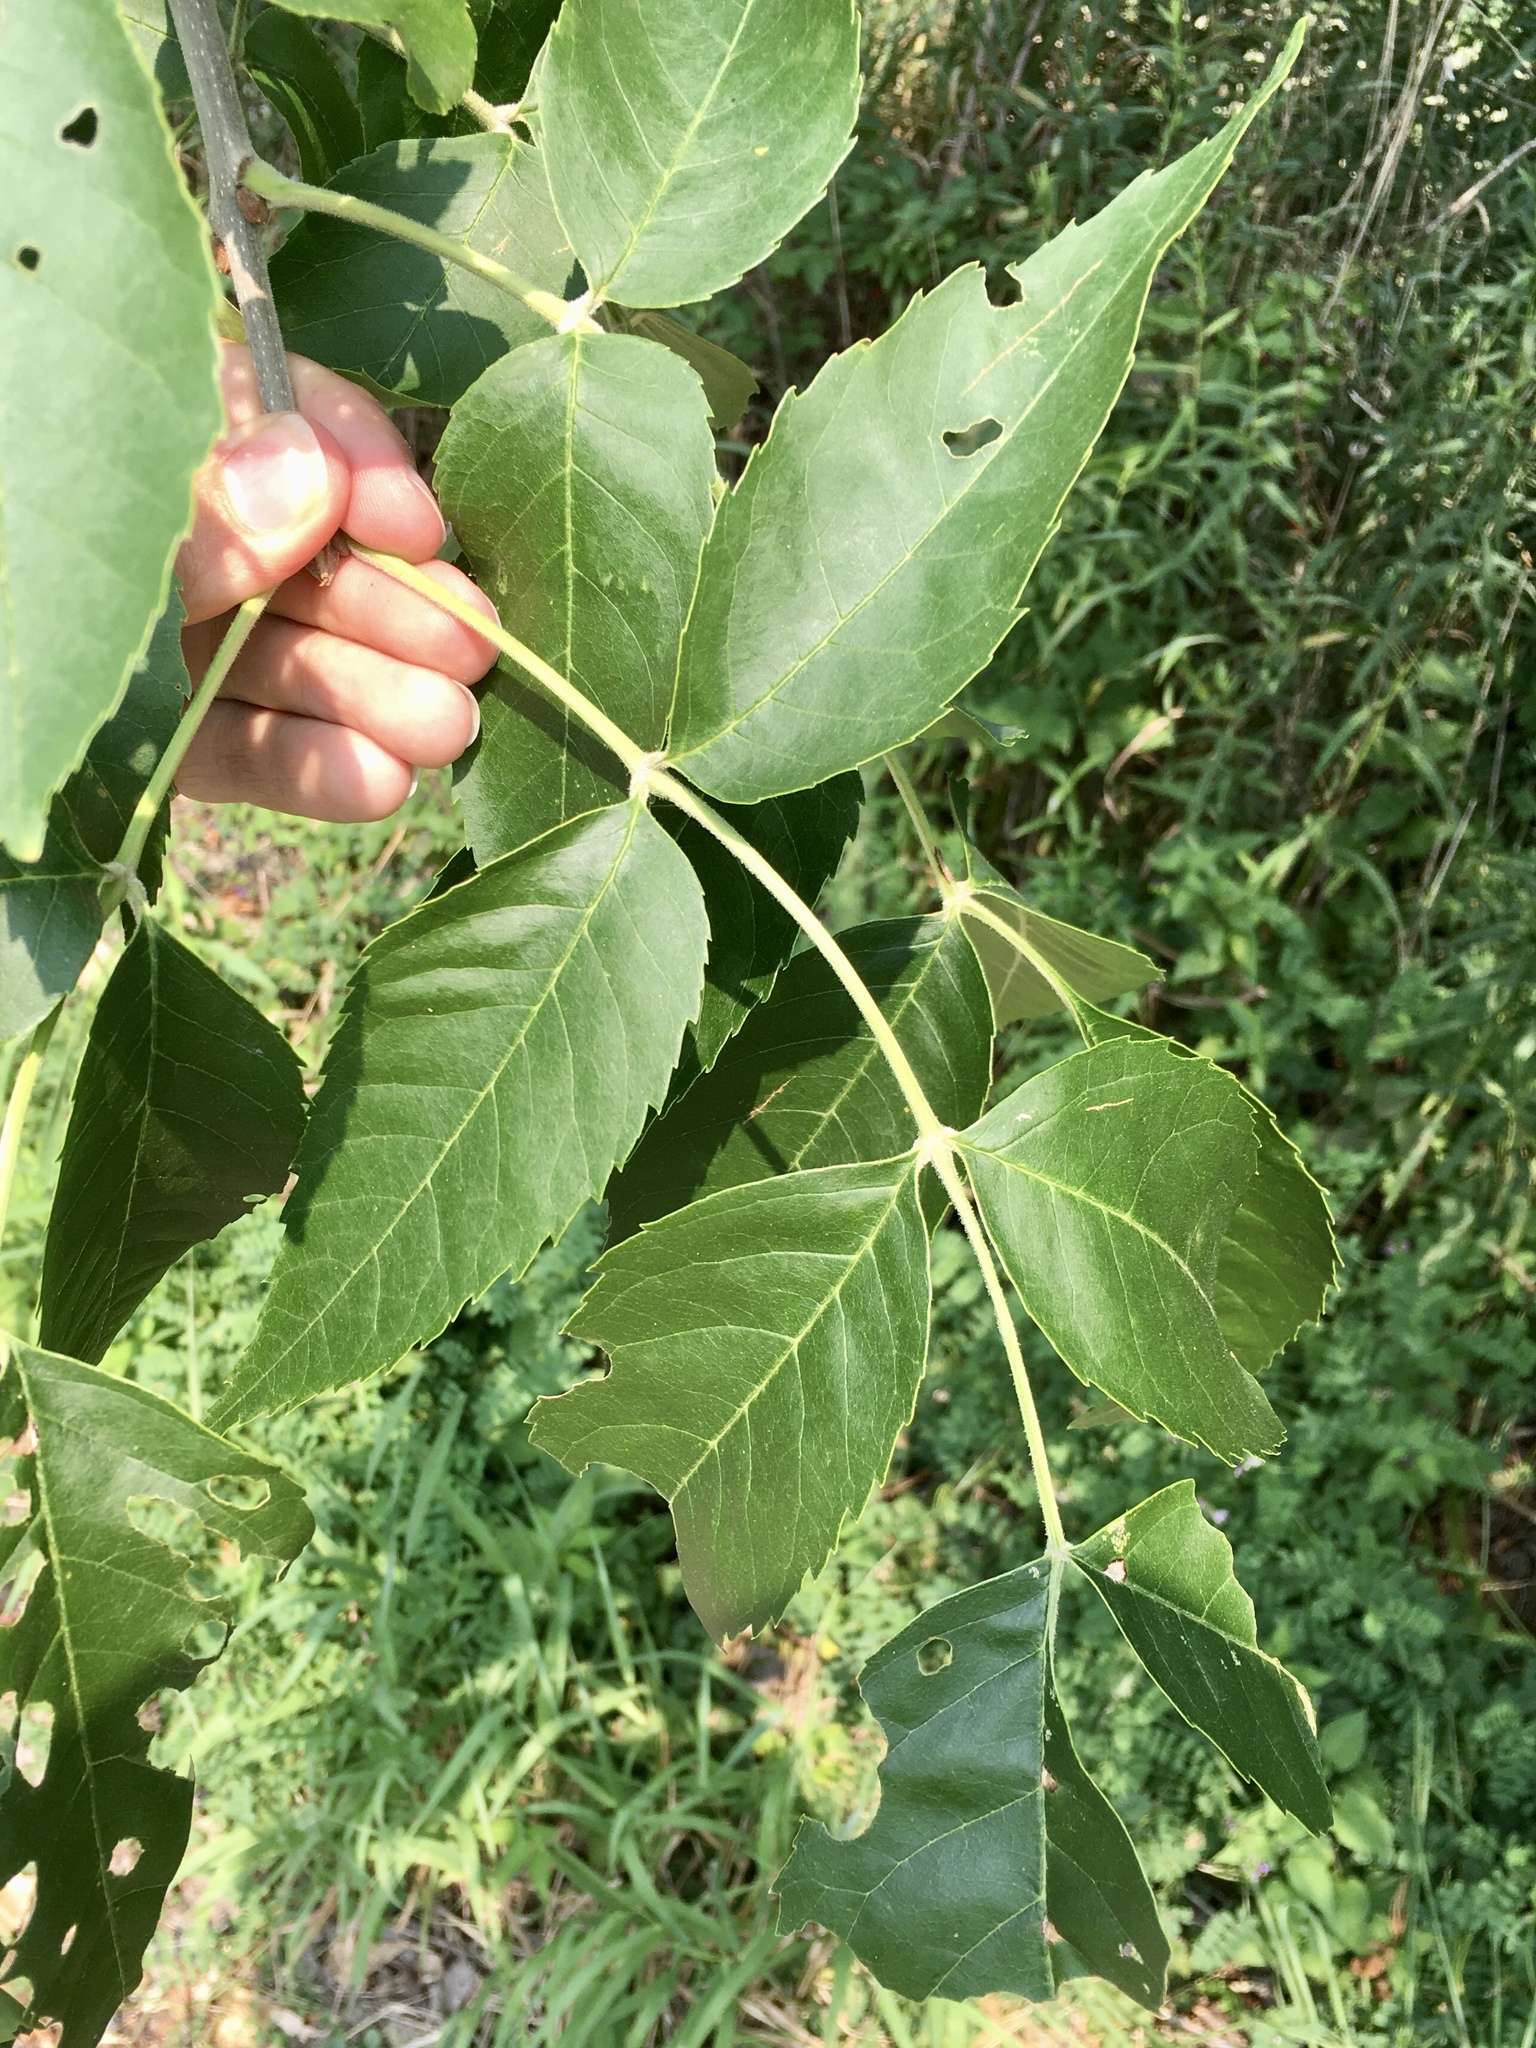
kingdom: Plantae
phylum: Tracheophyta
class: Magnoliopsida
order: Lamiales
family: Oleaceae
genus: Fraxinus
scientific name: Fraxinus pennsylvanica
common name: Green ash
